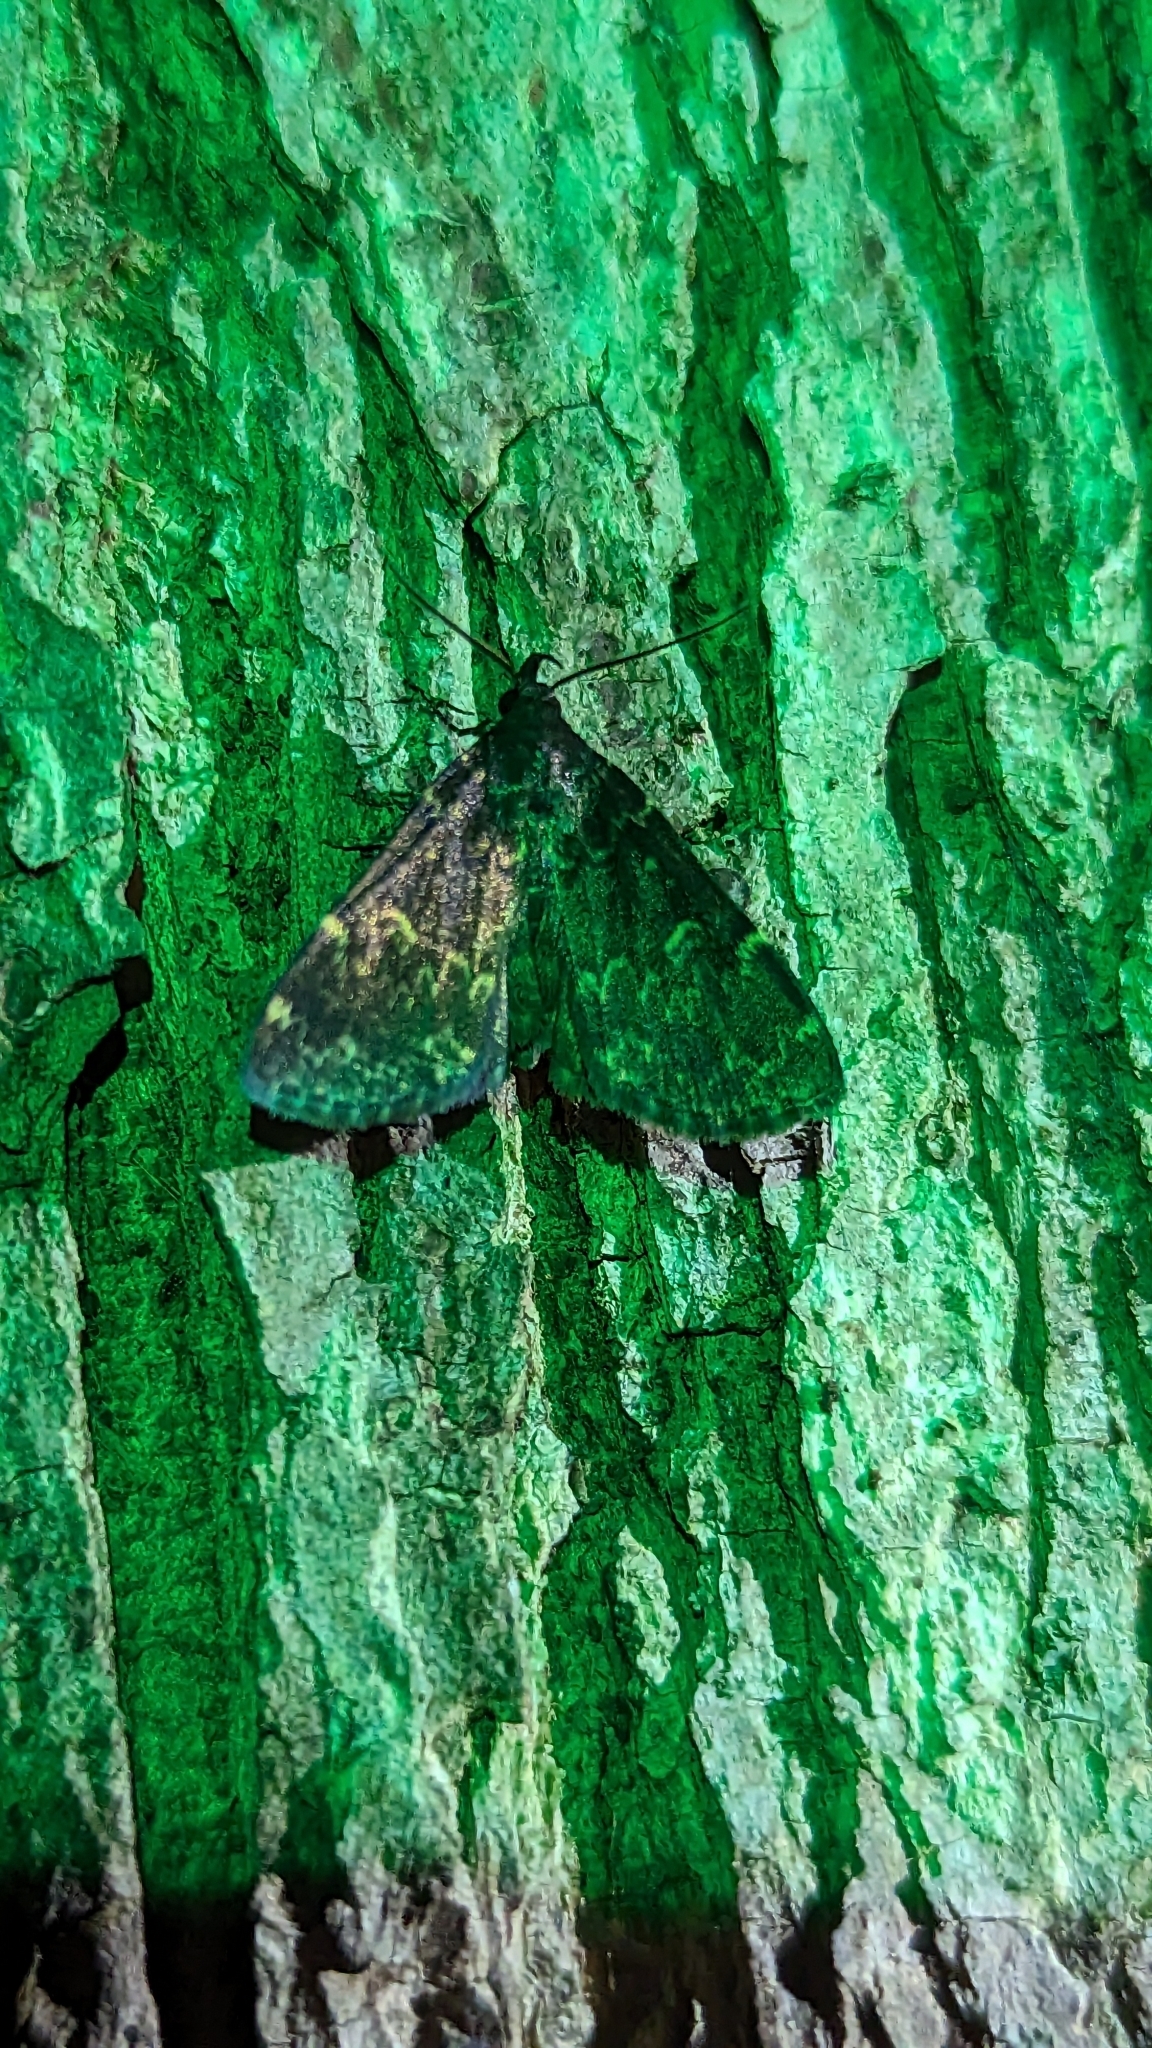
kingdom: Animalia
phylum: Arthropoda
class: Insecta
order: Lepidoptera
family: Erebidae
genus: Idia
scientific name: Idia lubricalis
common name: Twin-striped tabby
